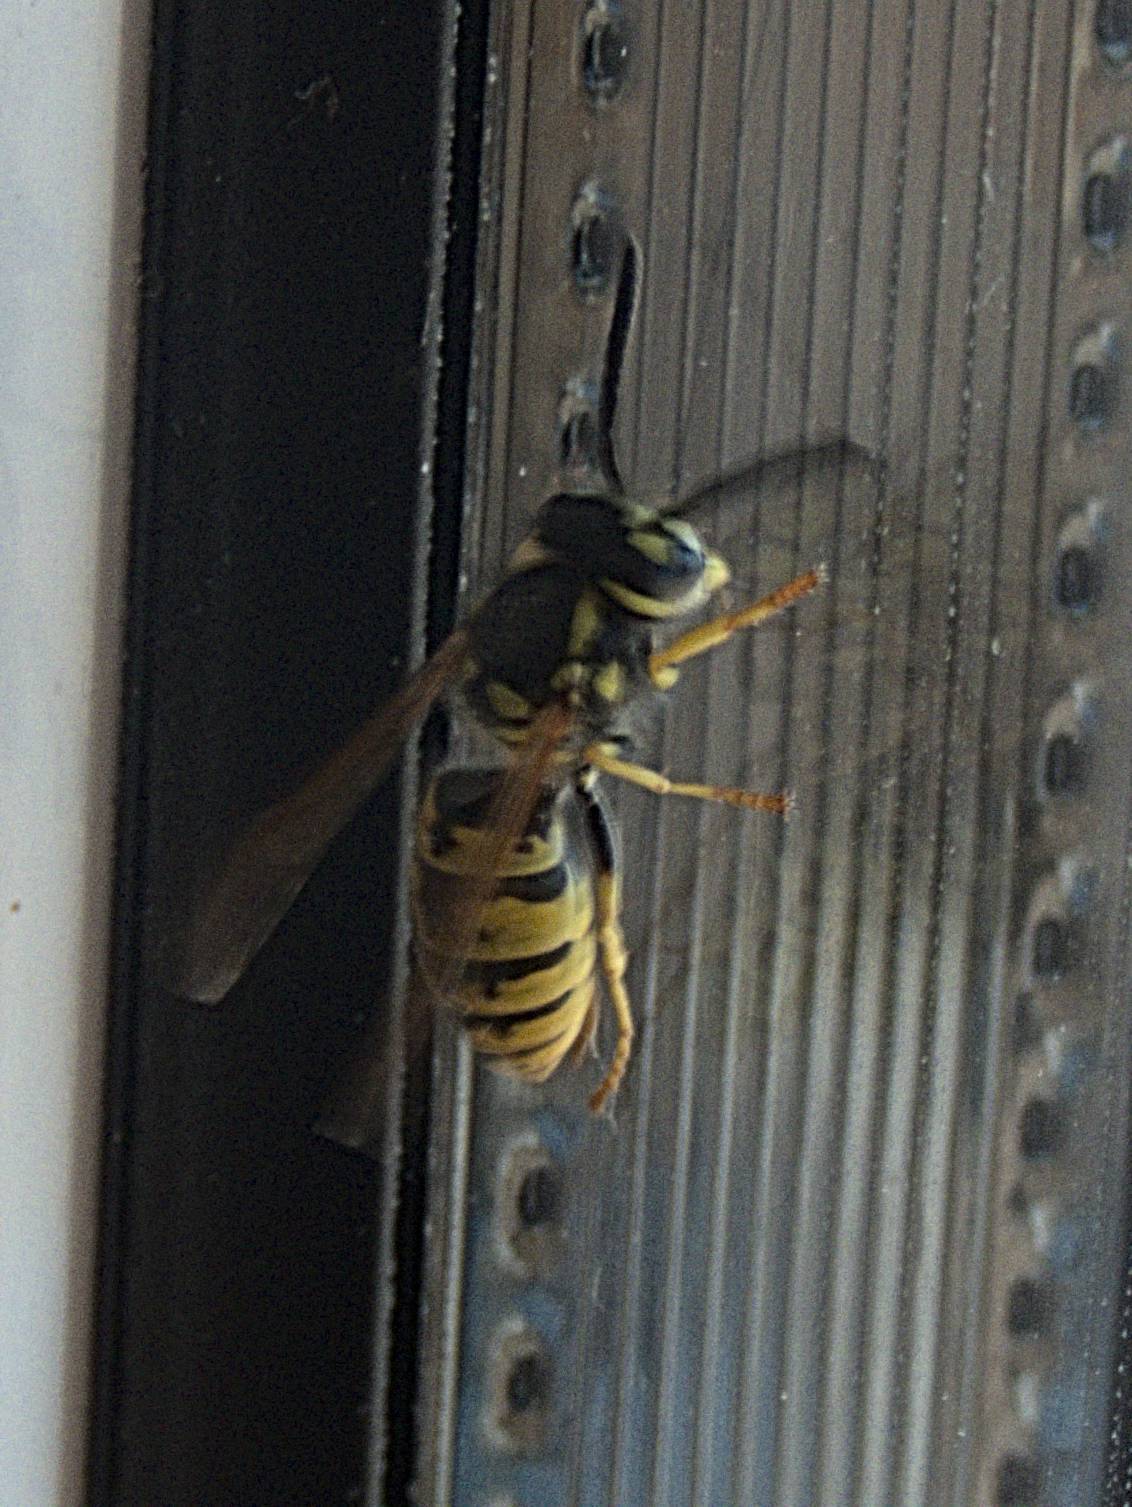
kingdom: Animalia
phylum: Arthropoda
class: Insecta
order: Hymenoptera
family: Vespidae
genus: Vespula
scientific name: Vespula vulgaris
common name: Common wasp
